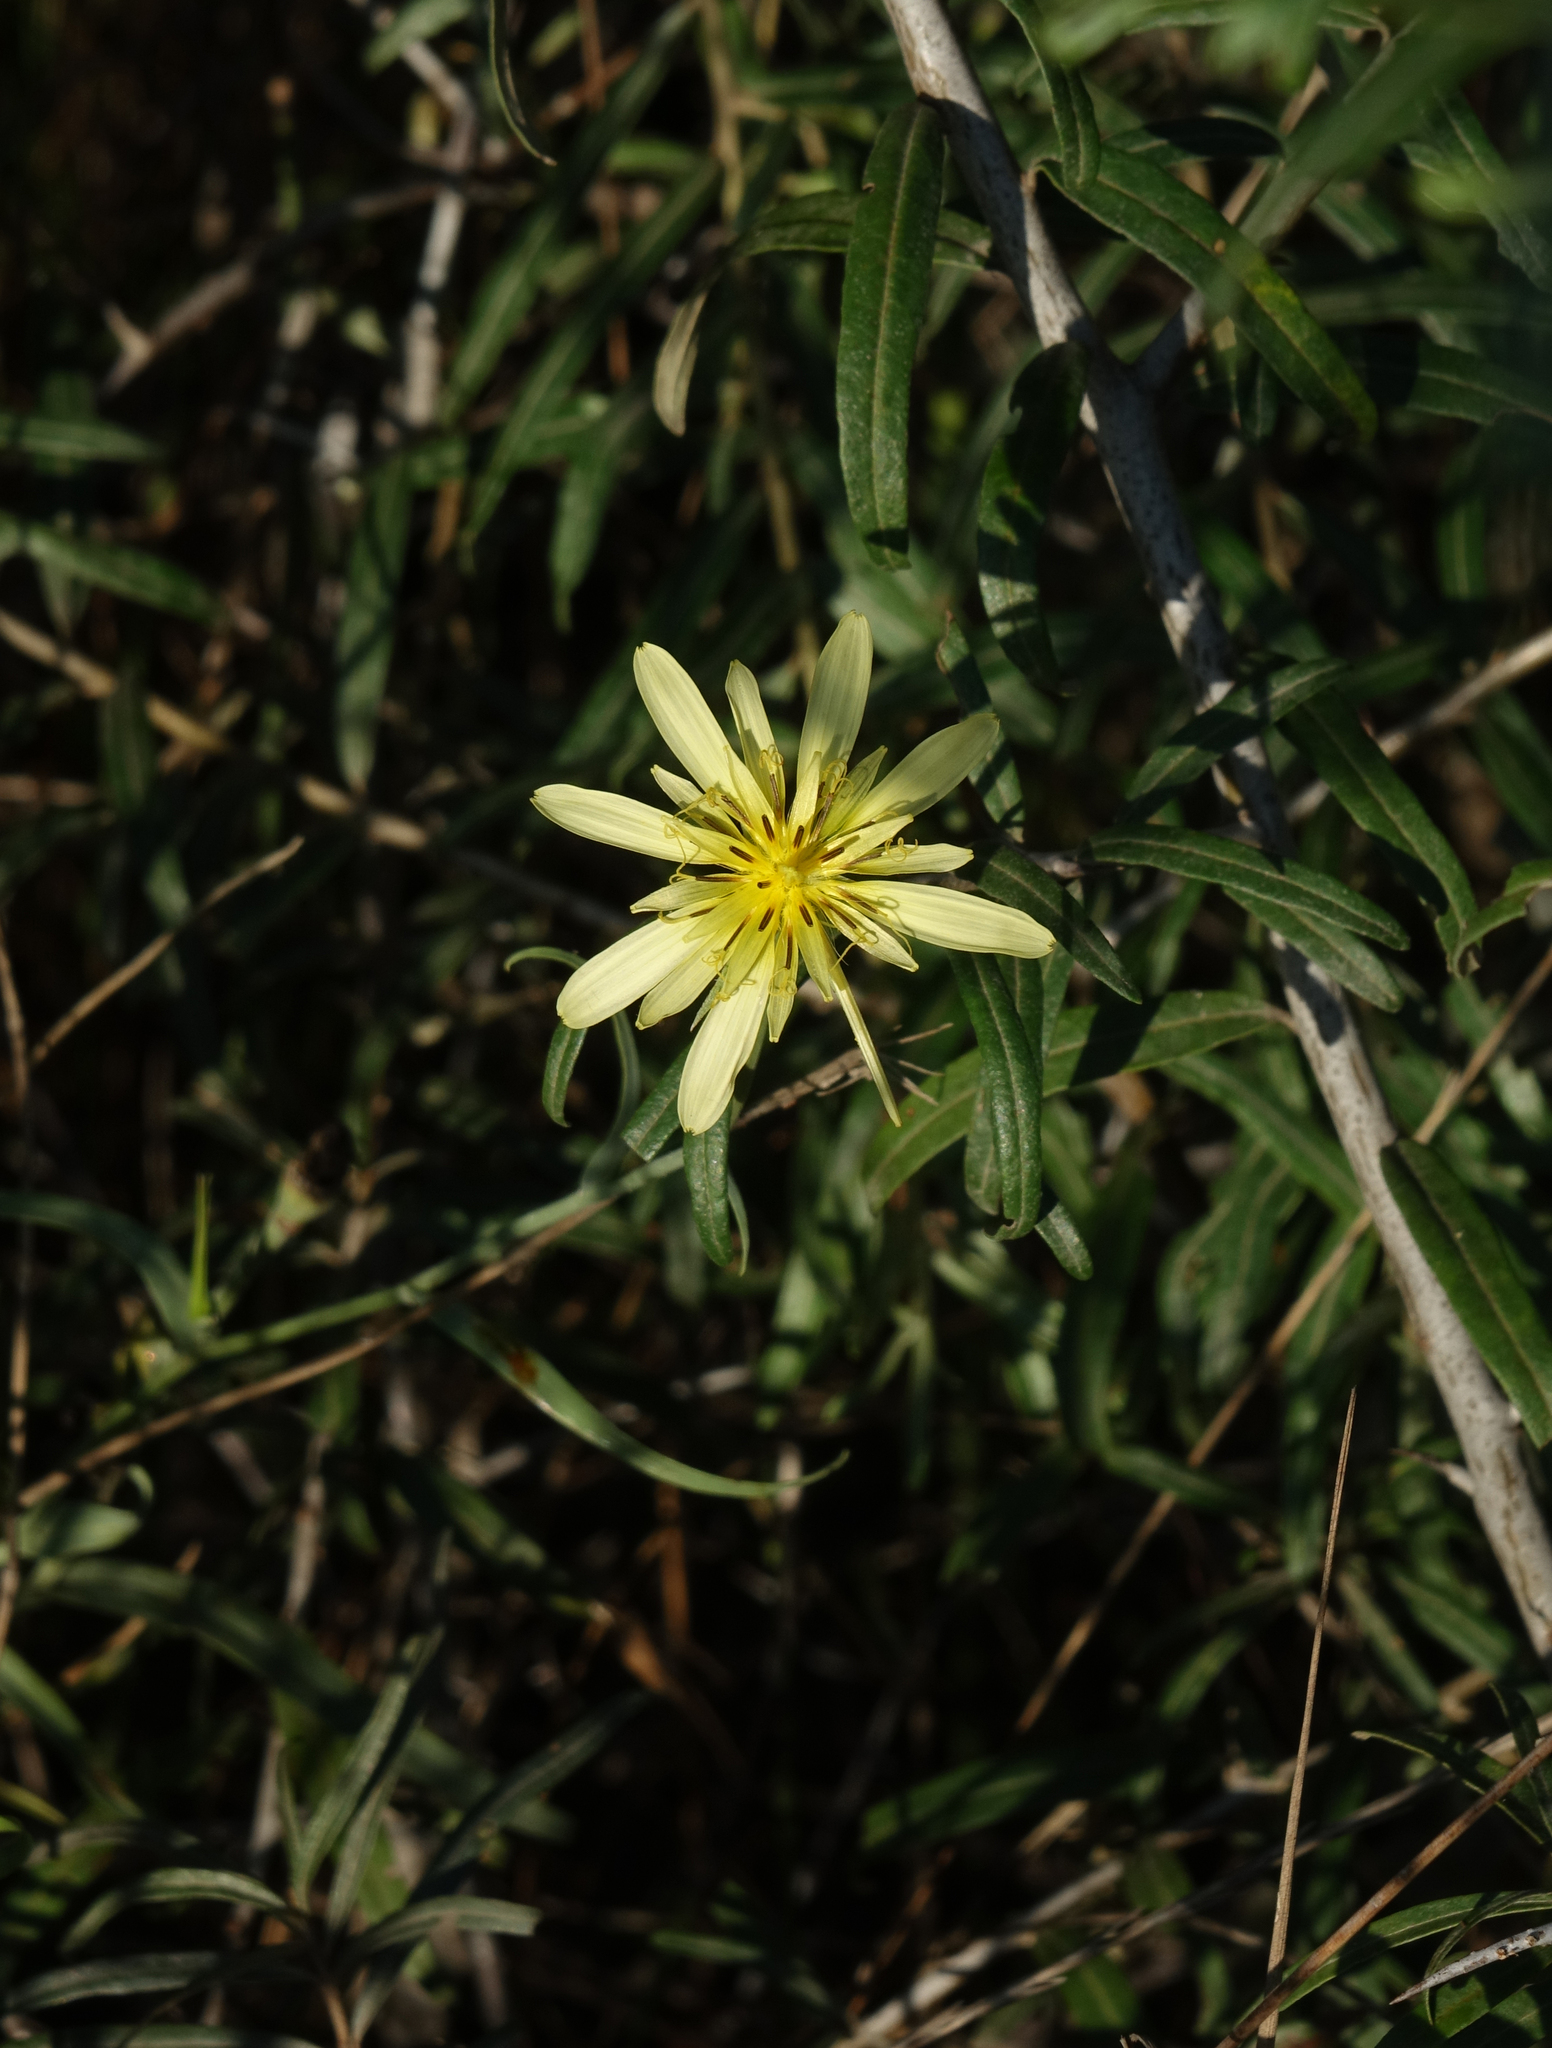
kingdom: Plantae
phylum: Tracheophyta
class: Magnoliopsida
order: Asterales
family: Asteraceae
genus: Tragopogon
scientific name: Tragopogon graminifolius
